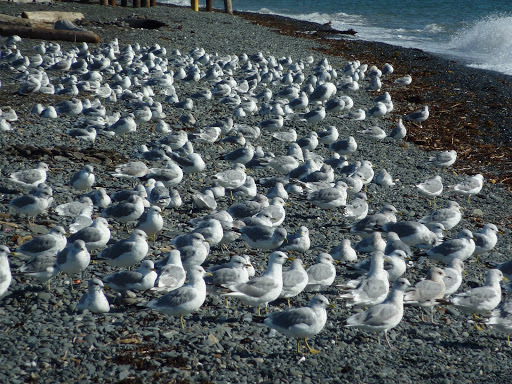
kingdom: Animalia
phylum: Chordata
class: Aves
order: Charadriiformes
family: Laridae
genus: Larus
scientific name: Larus brachyrhynchus
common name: Short-billed gull
